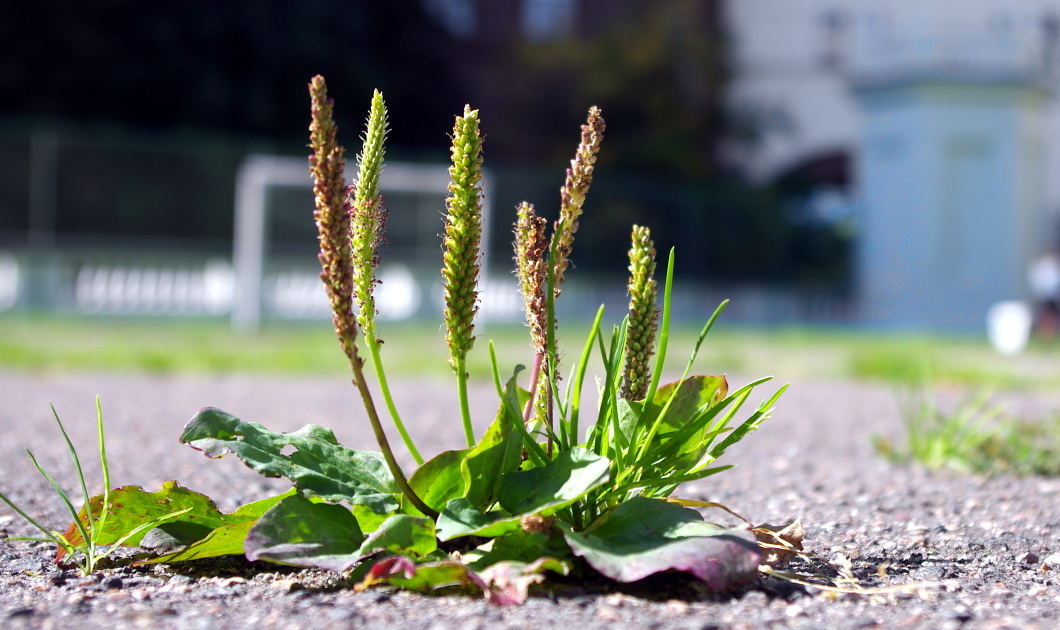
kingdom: Plantae
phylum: Tracheophyta
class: Magnoliopsida
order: Lamiales
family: Plantaginaceae
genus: Plantago
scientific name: Plantago major
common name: Common plantain
